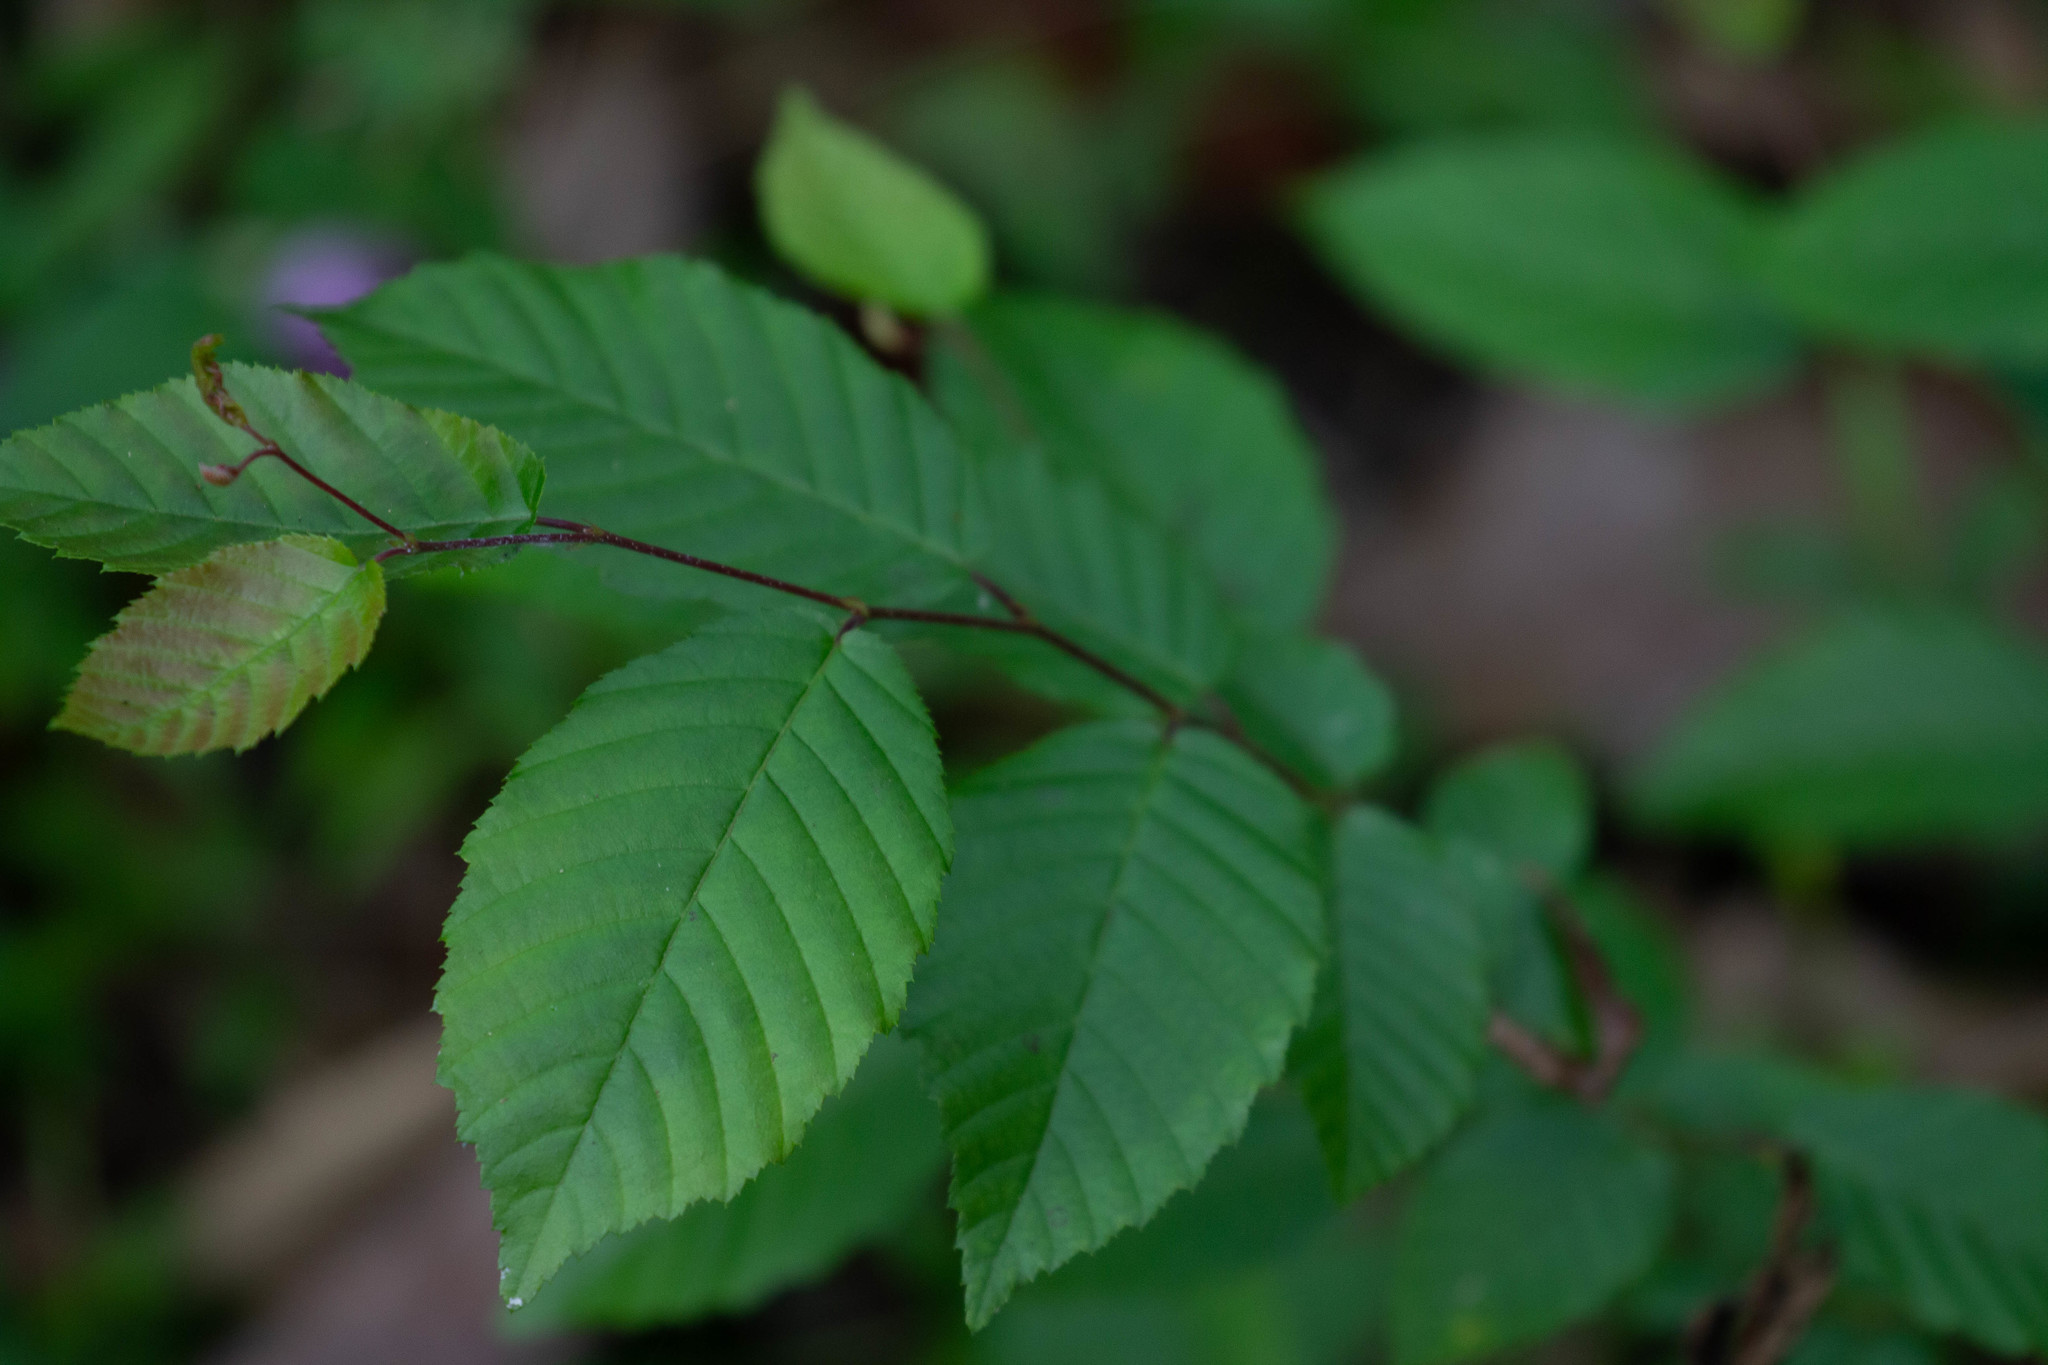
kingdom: Plantae
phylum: Tracheophyta
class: Magnoliopsida
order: Fagales
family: Betulaceae
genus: Carpinus
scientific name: Carpinus caroliniana
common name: American hornbeam
